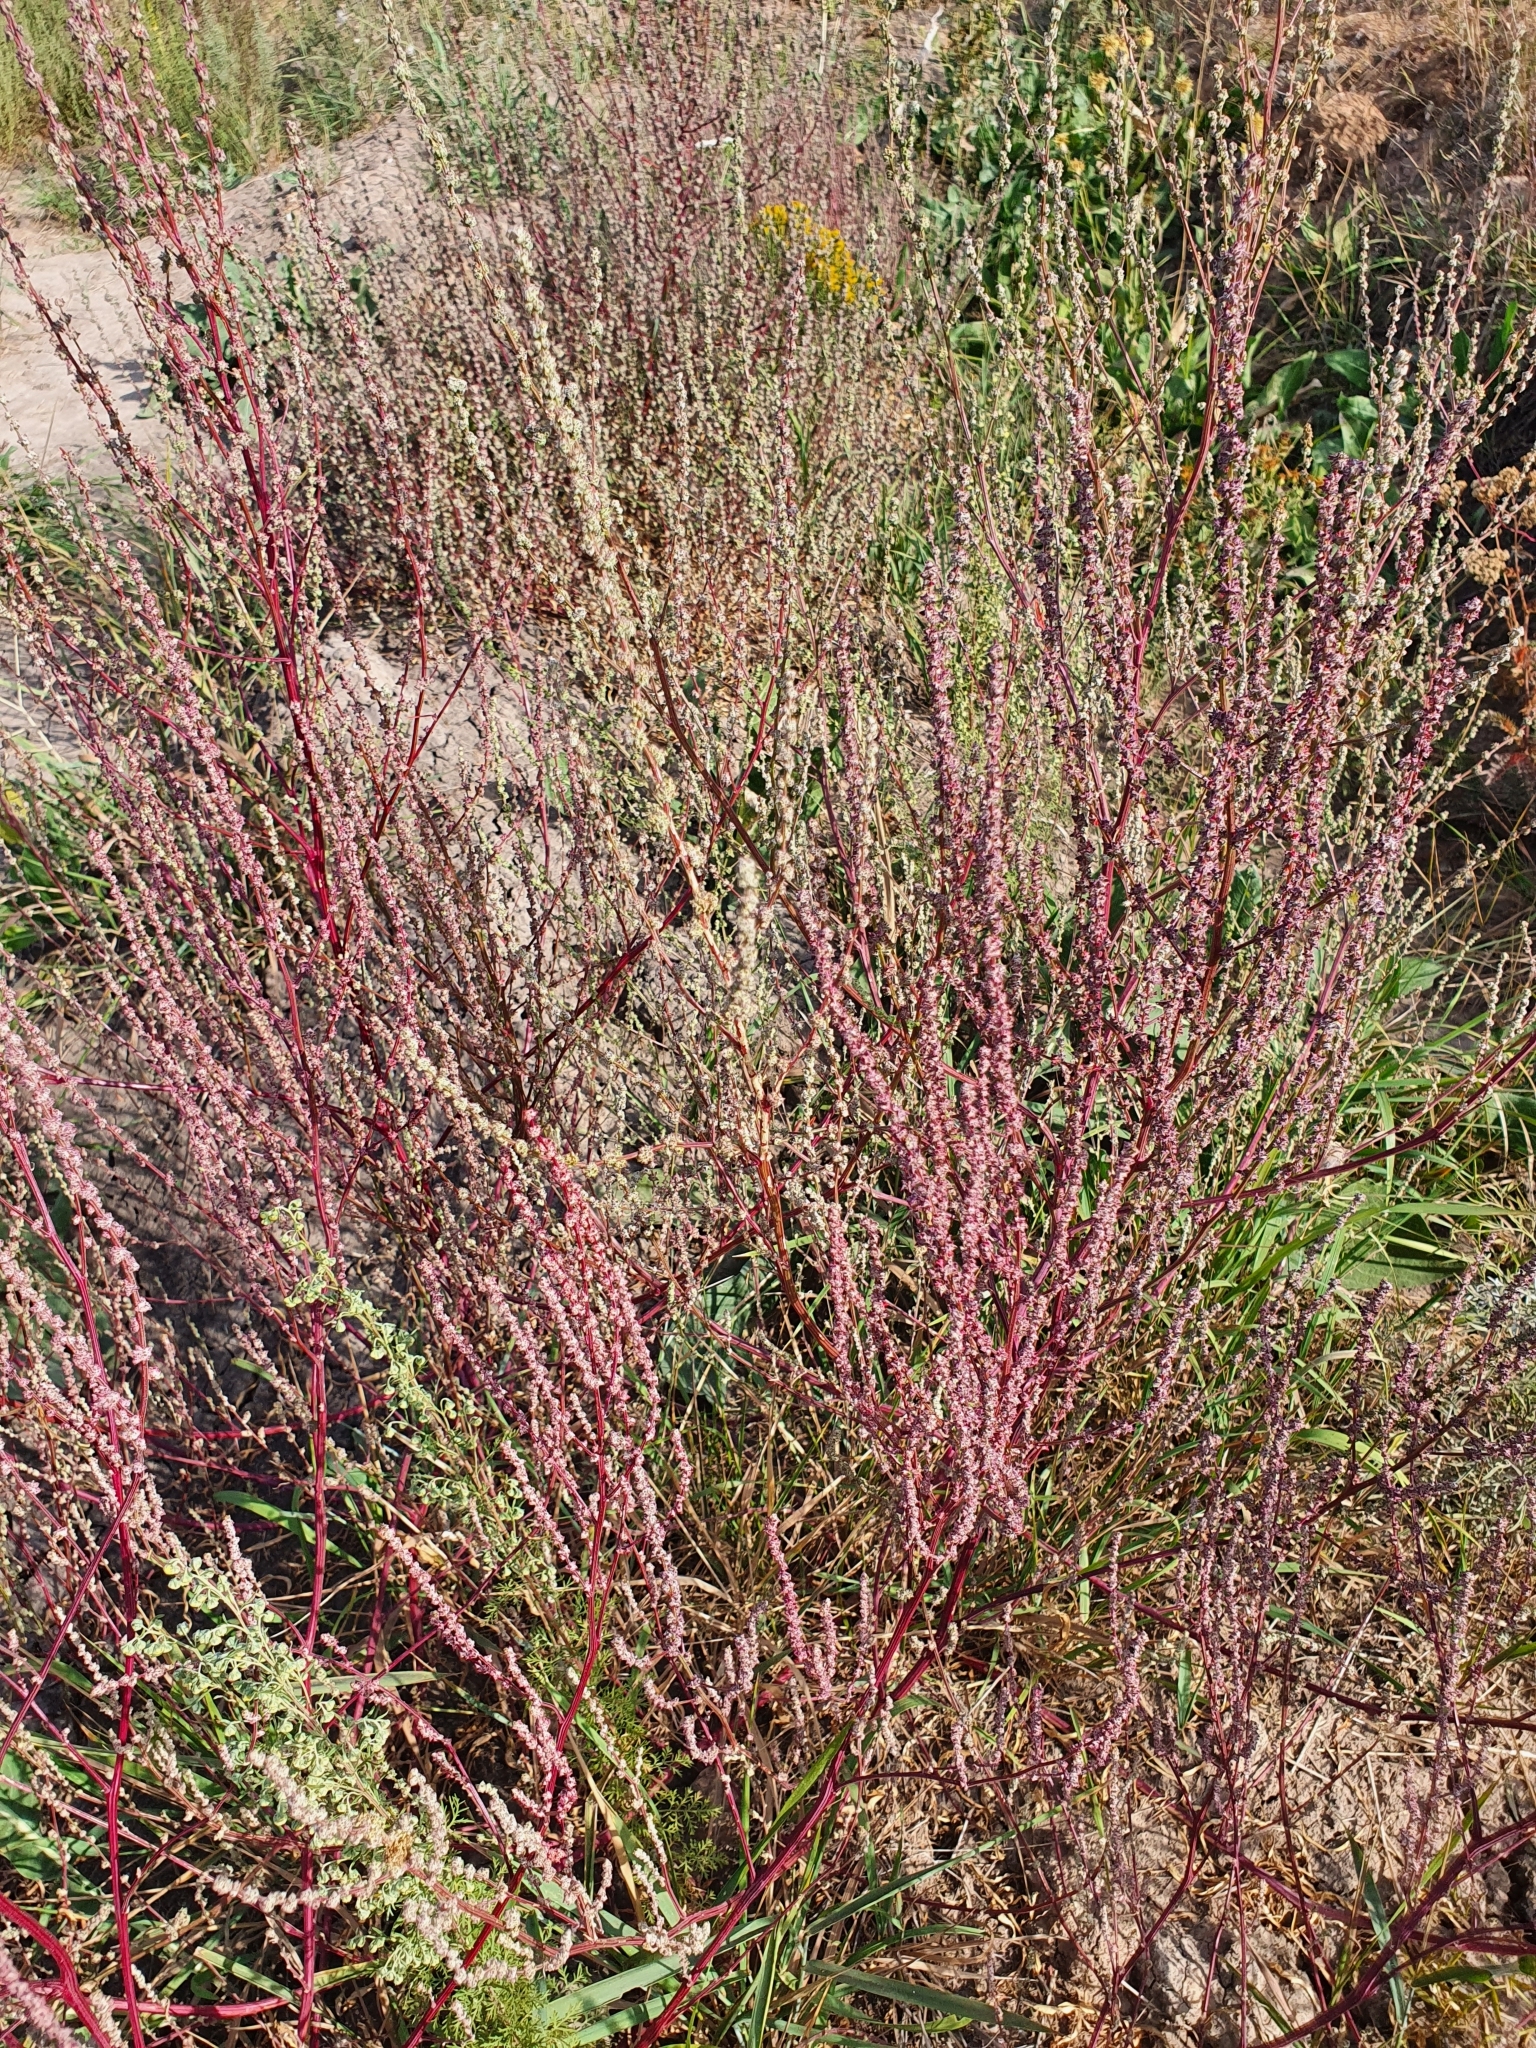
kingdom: Plantae
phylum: Tracheophyta
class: Magnoliopsida
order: Caryophyllales
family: Amaranthaceae
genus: Atriplex
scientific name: Atriplex intracontinentalis
